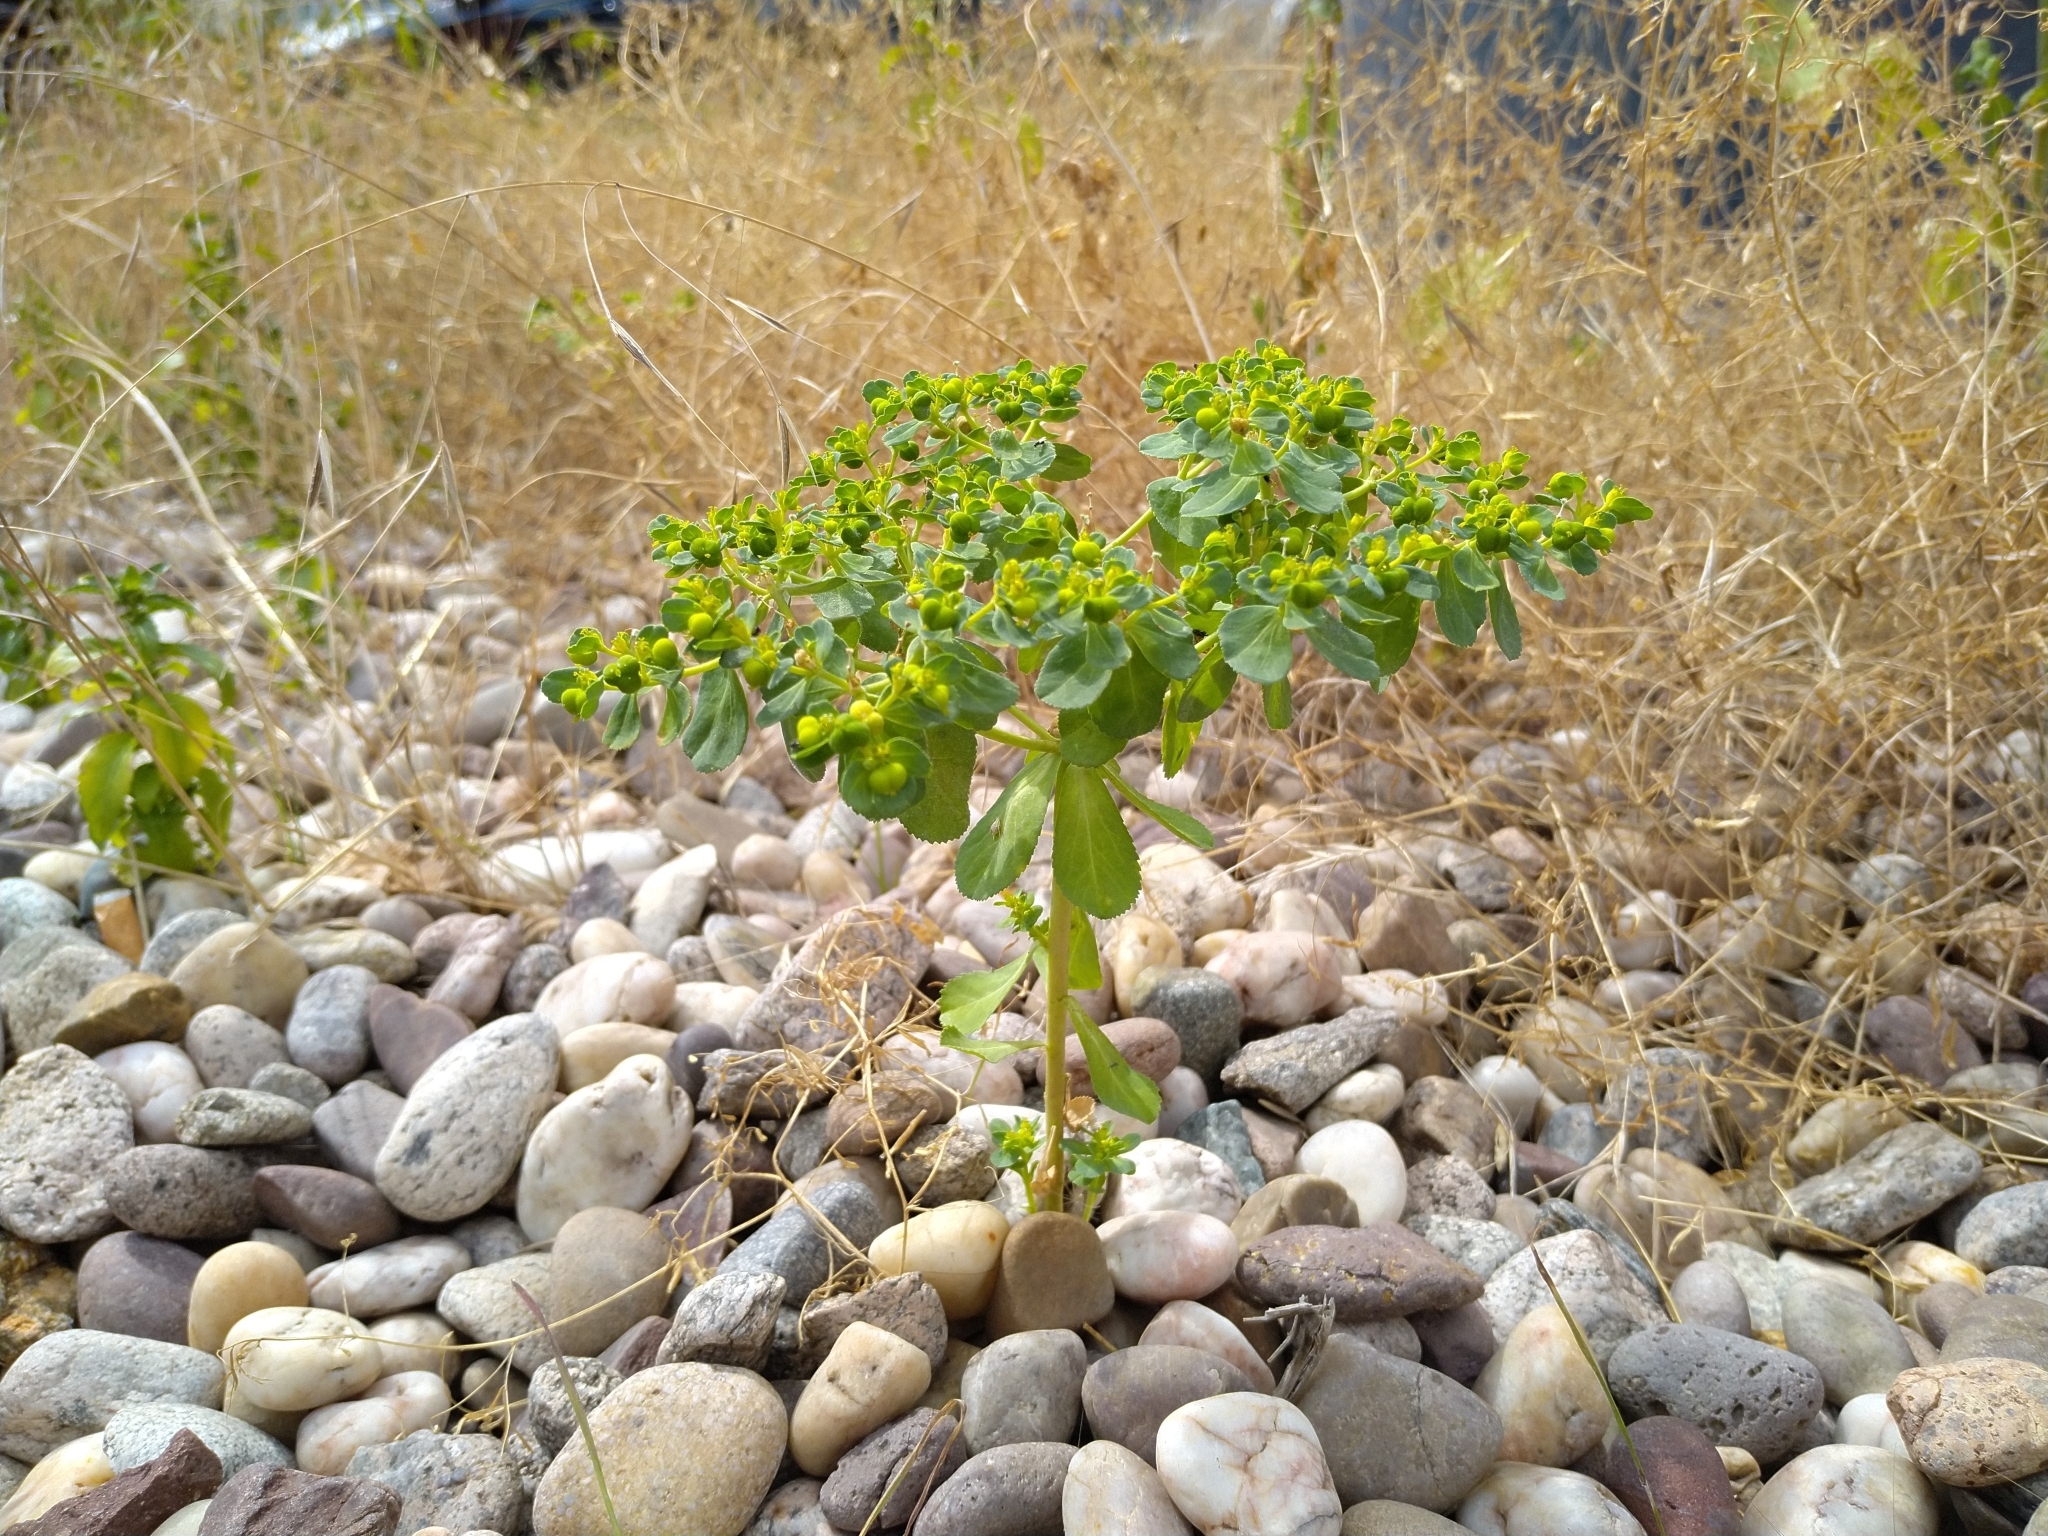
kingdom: Plantae
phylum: Tracheophyta
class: Magnoliopsida
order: Malpighiales
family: Euphorbiaceae
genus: Euphorbia
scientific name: Euphorbia helioscopia
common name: Sun spurge
